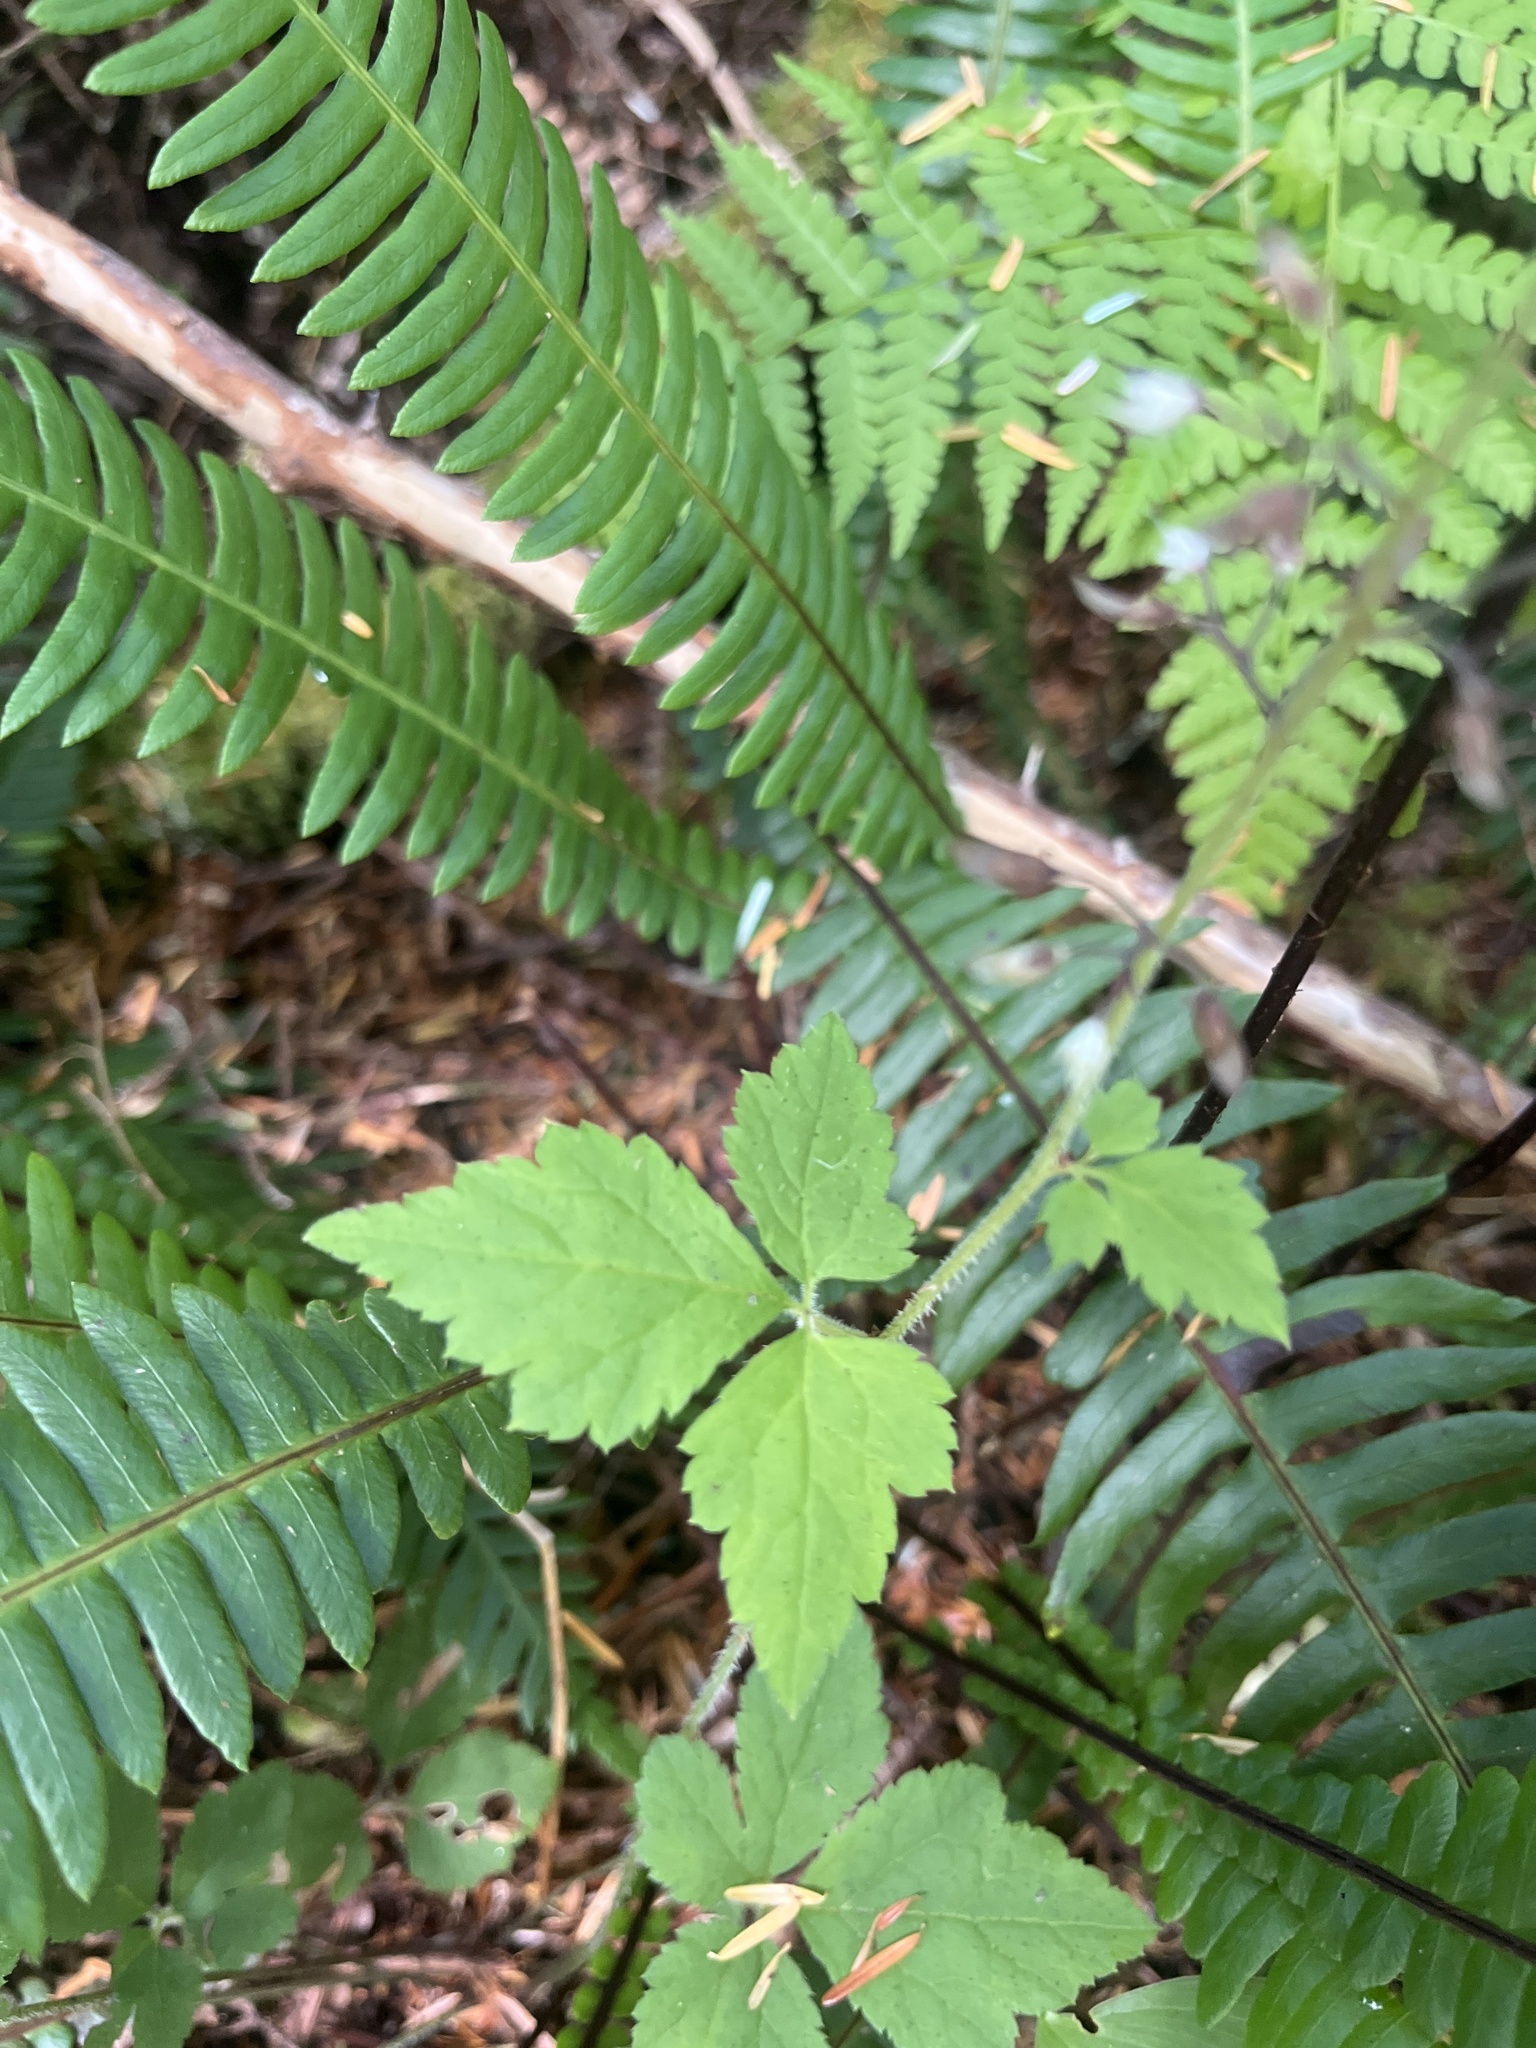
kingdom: Plantae
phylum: Tracheophyta
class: Magnoliopsida
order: Saxifragales
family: Saxifragaceae
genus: Tiarella
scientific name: Tiarella trifoliata
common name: Sugar-scoop
